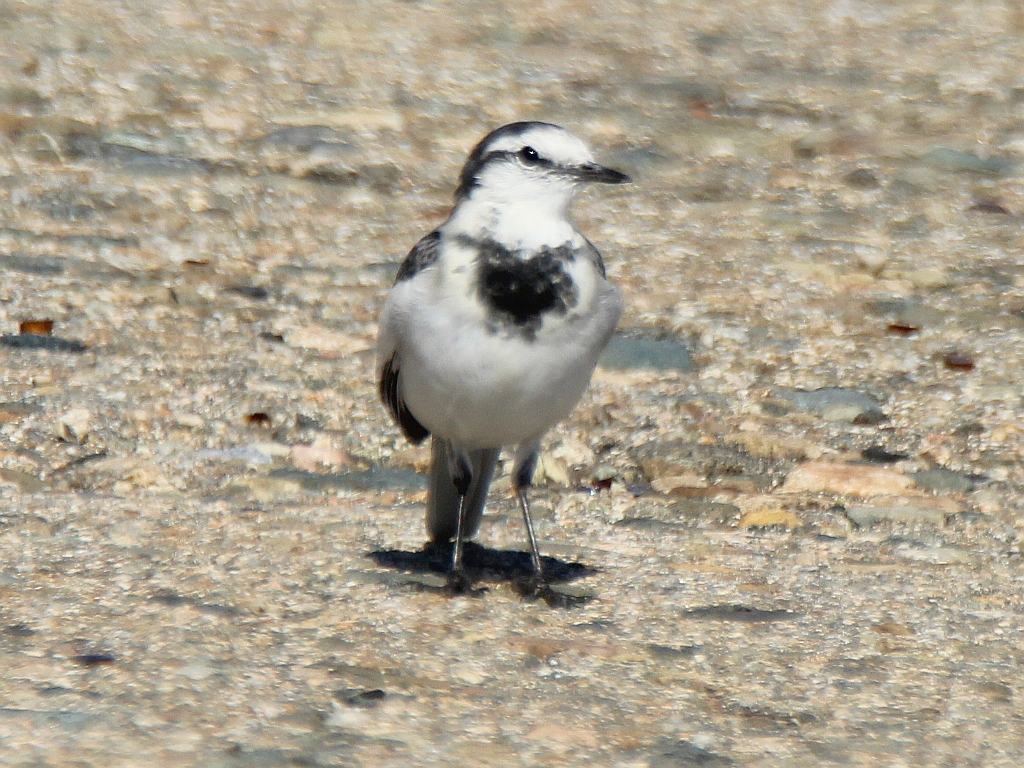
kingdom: Animalia
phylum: Chordata
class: Aves
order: Passeriformes
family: Motacillidae
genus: Motacilla
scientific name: Motacilla alba
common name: White wagtail
